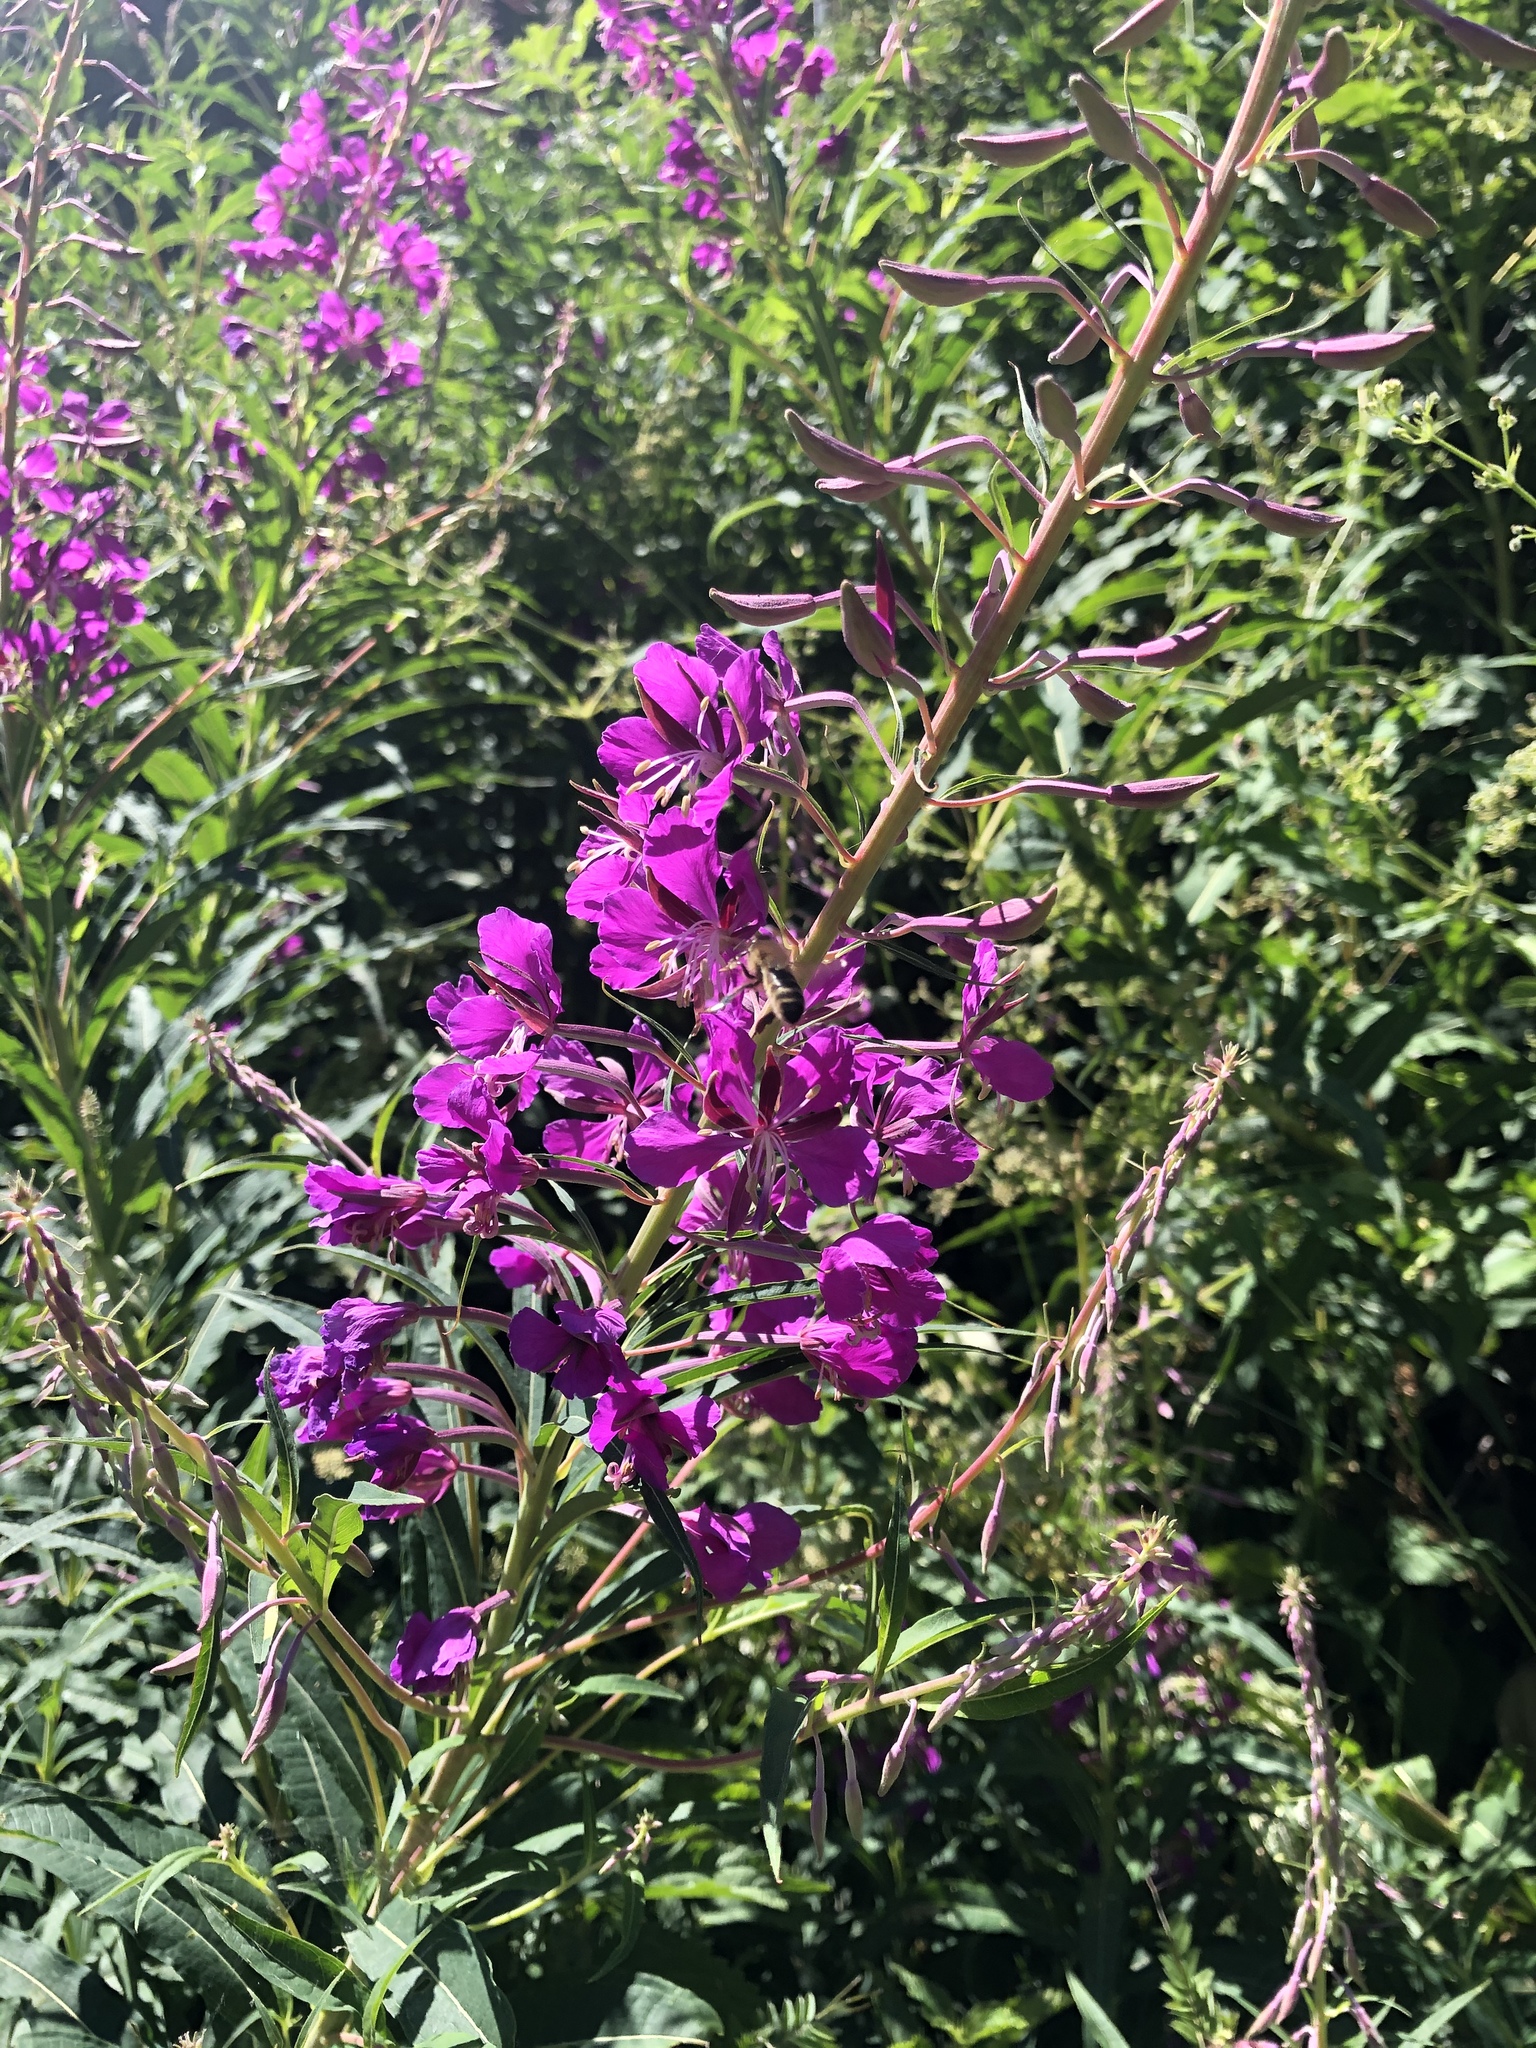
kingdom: Plantae
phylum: Tracheophyta
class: Magnoliopsida
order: Myrtales
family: Onagraceae
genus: Chamaenerion
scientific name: Chamaenerion angustifolium
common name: Fireweed
